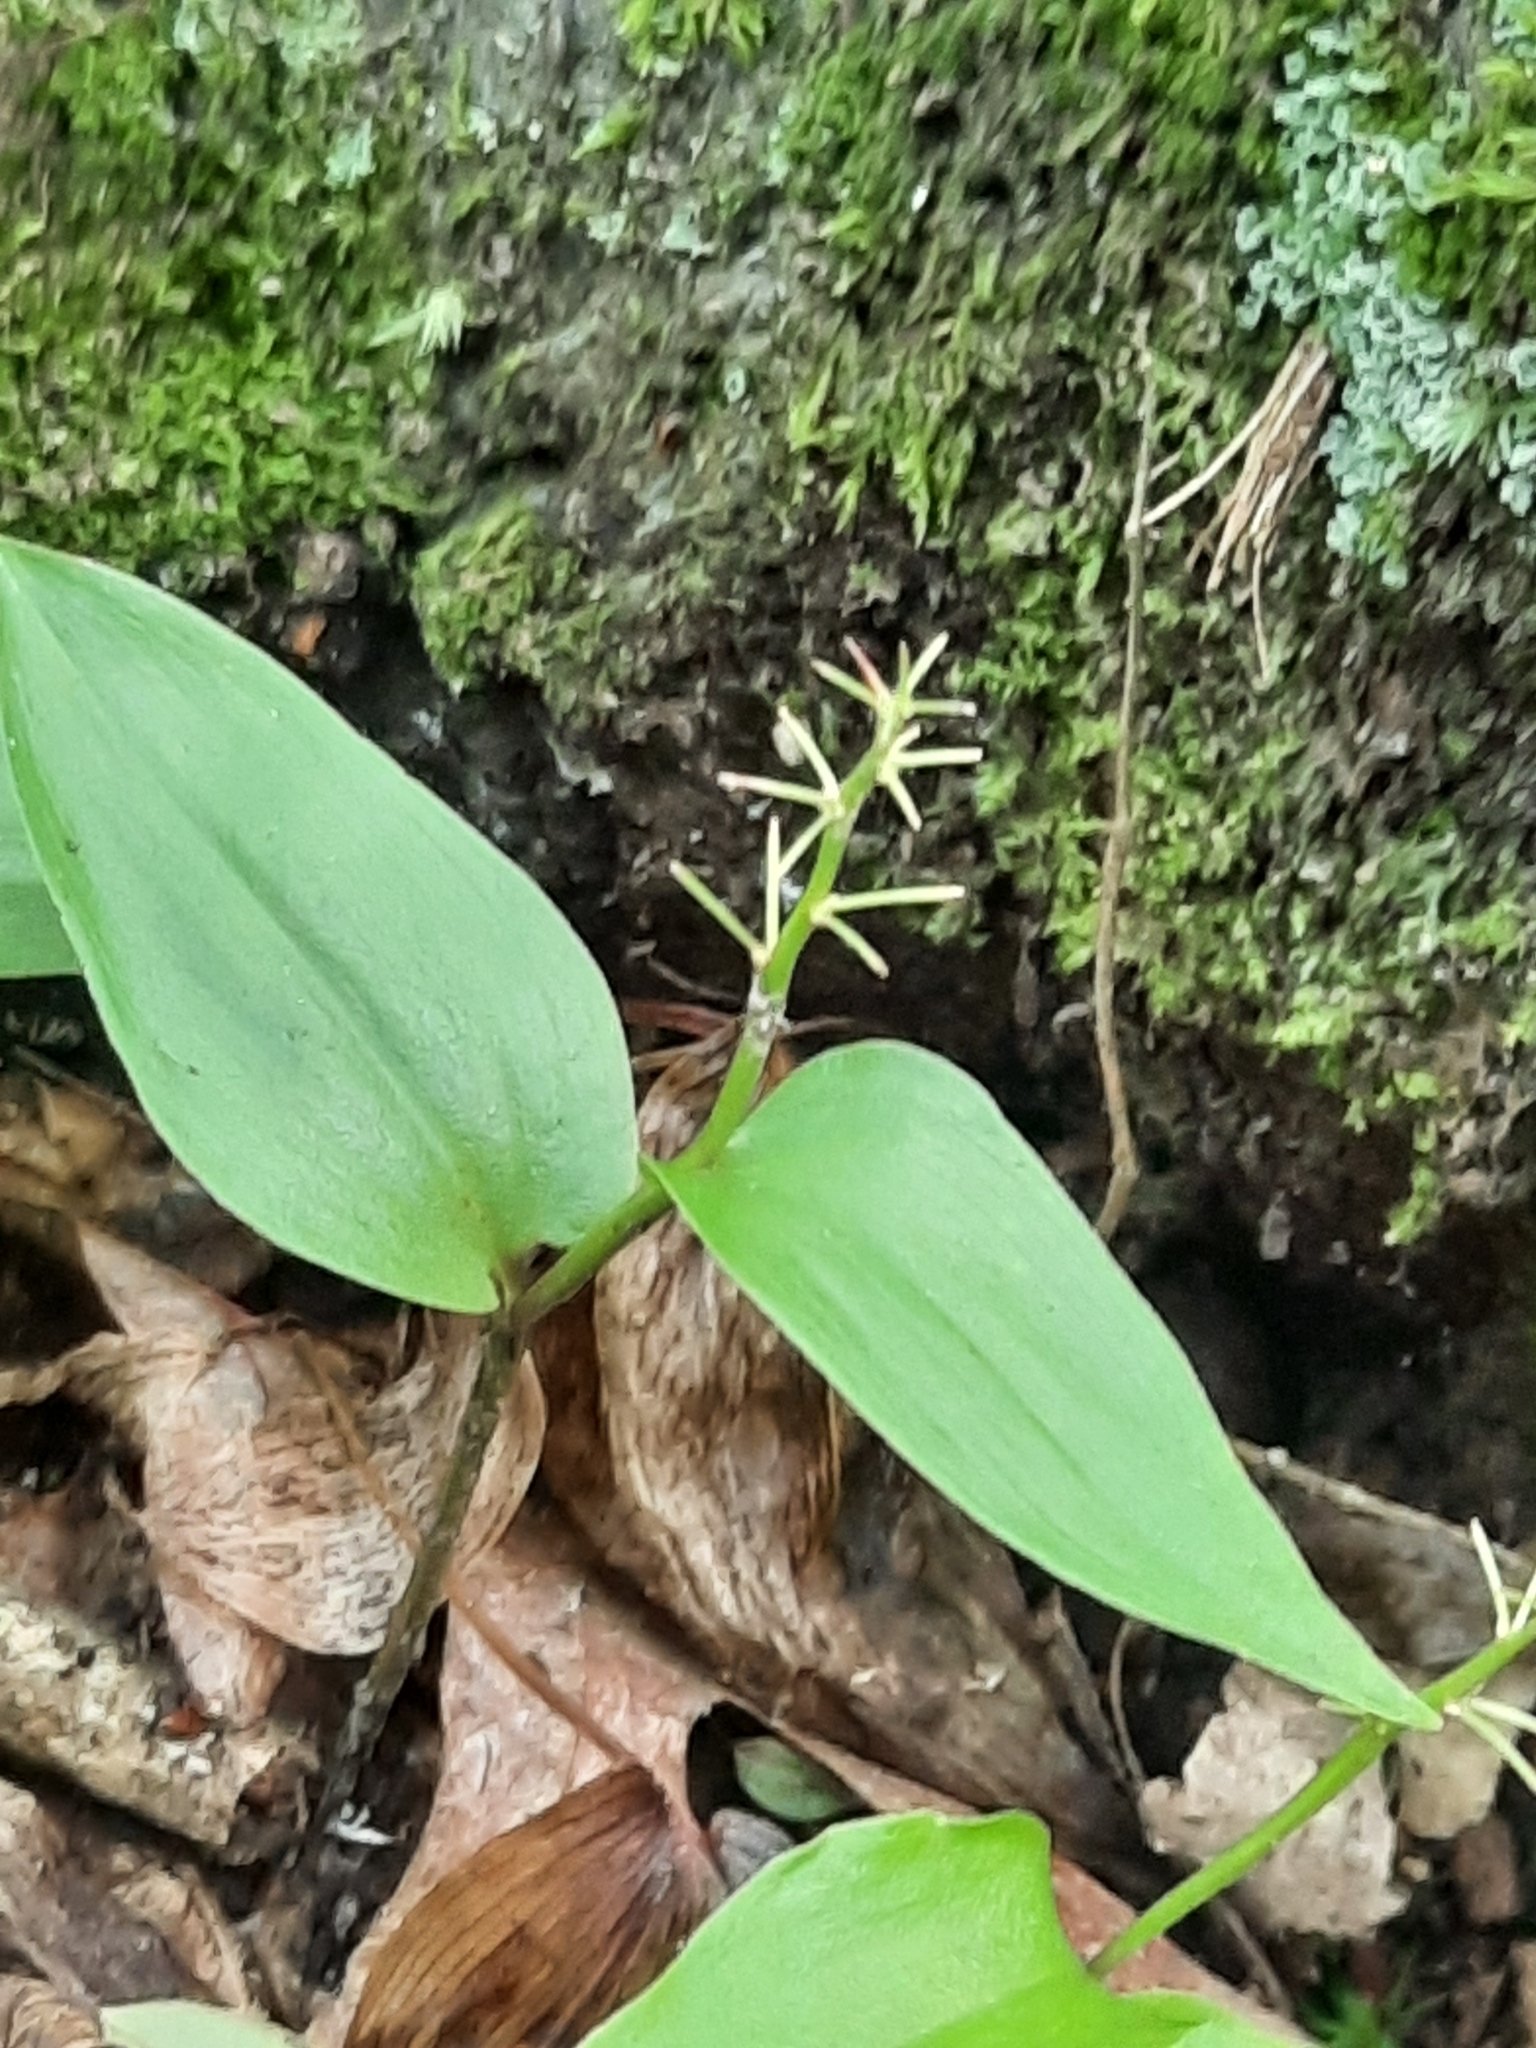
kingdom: Plantae
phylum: Tracheophyta
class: Liliopsida
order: Asparagales
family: Asparagaceae
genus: Maianthemum
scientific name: Maianthemum canadense
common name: False lily-of-the-valley
